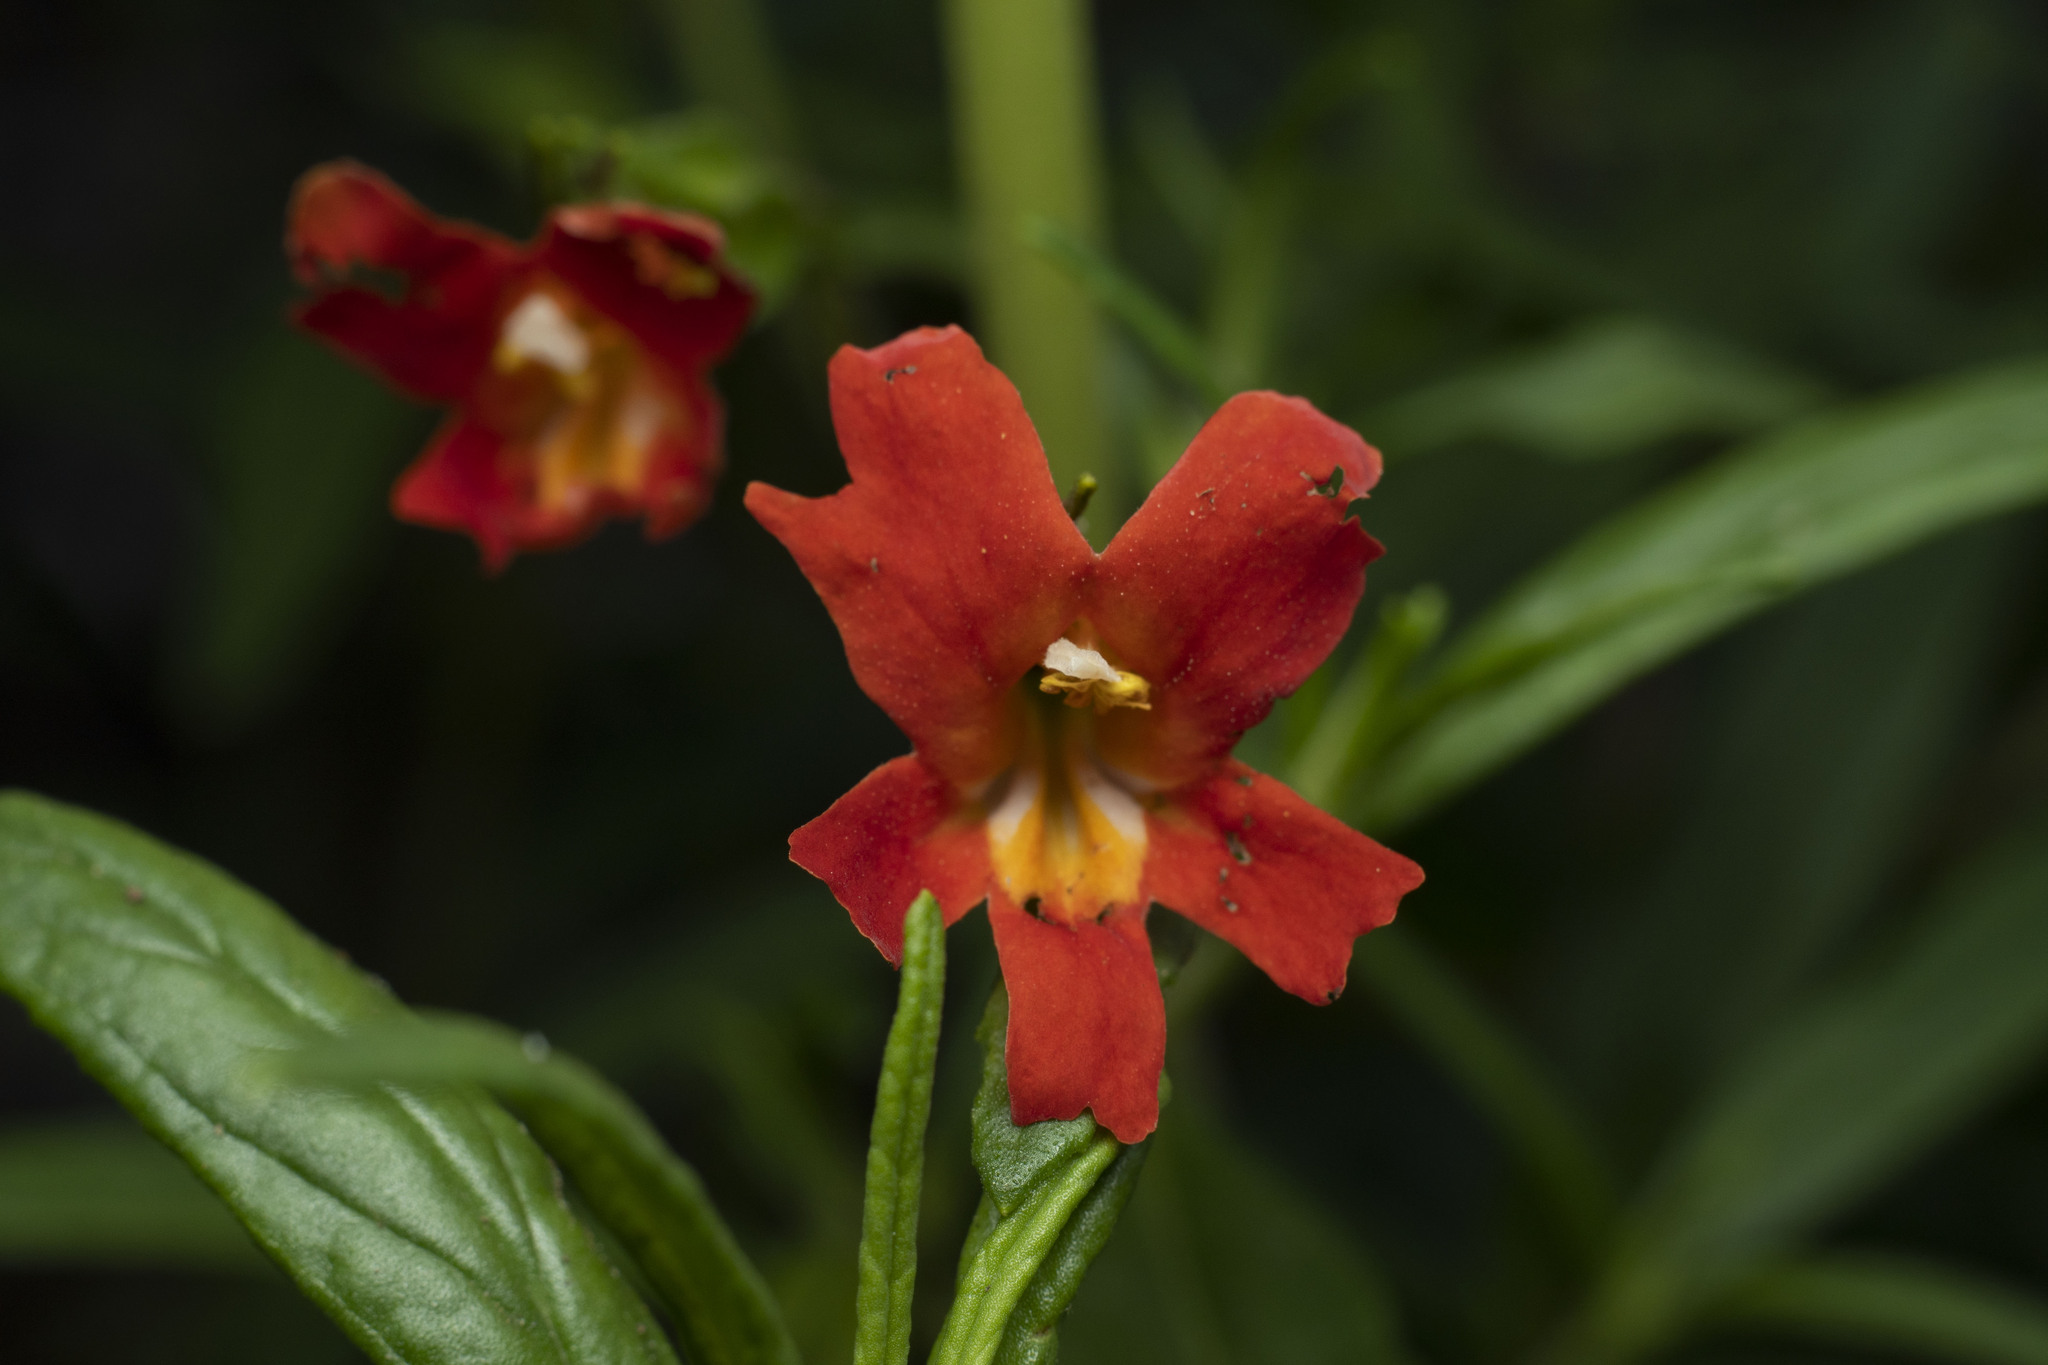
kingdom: Plantae
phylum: Tracheophyta
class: Magnoliopsida
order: Lamiales
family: Phrymaceae
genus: Diplacus
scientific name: Diplacus puniceus
